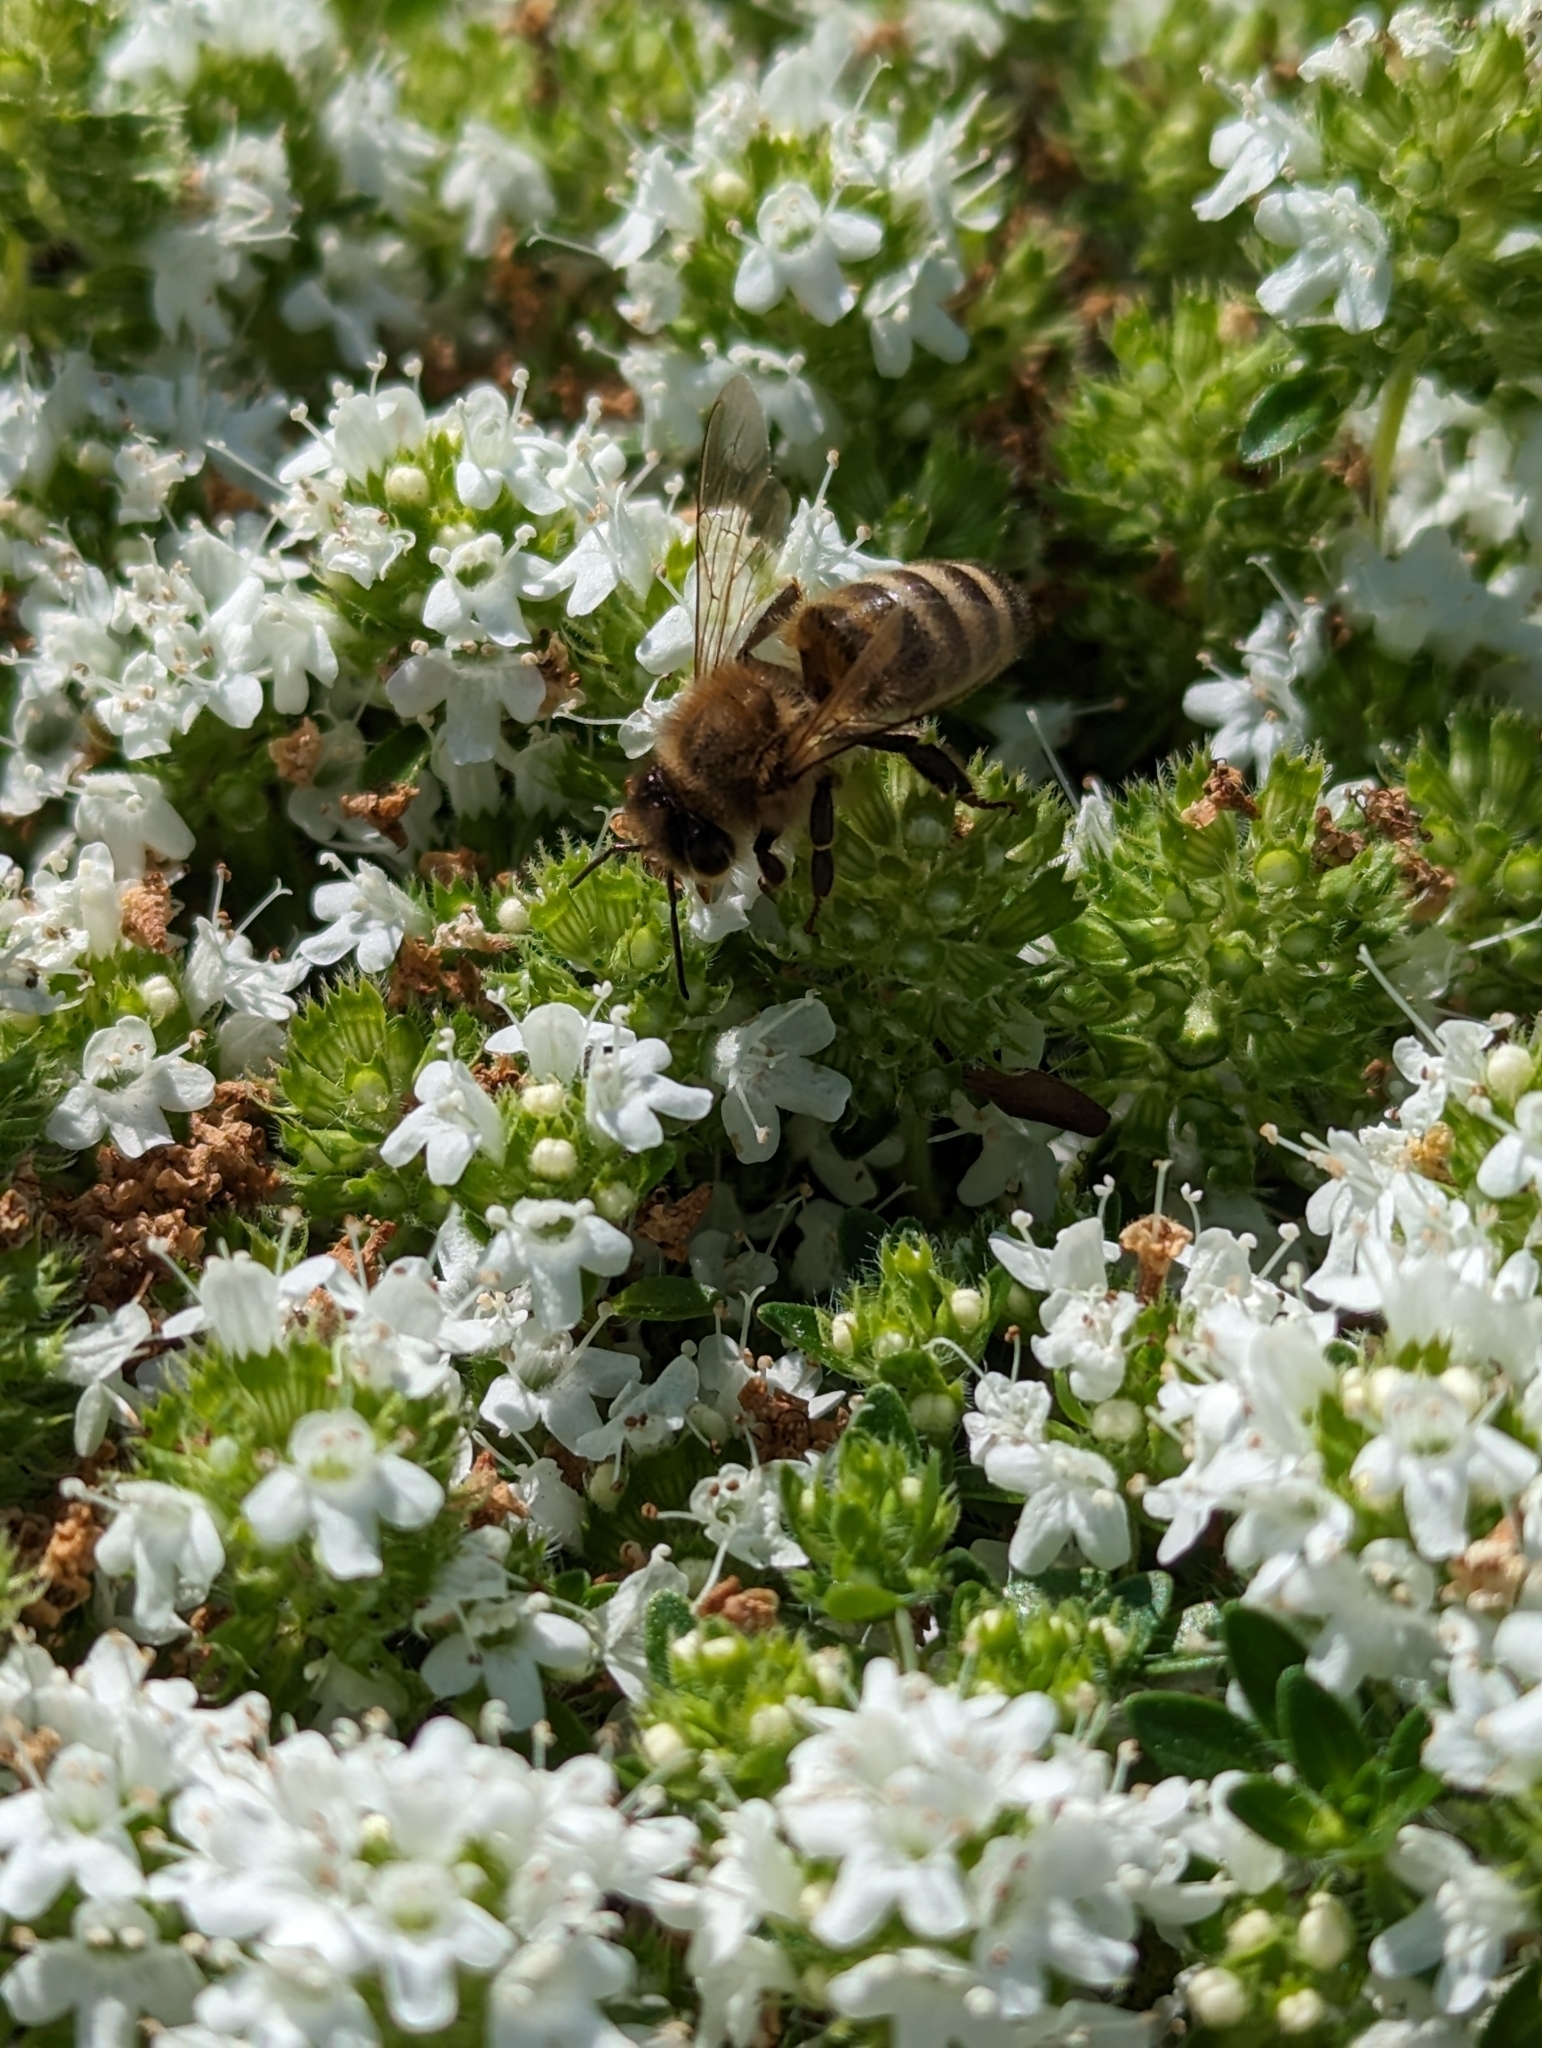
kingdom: Animalia
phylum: Arthropoda
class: Insecta
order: Hymenoptera
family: Apidae
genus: Apis
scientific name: Apis mellifera
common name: Honey bee
